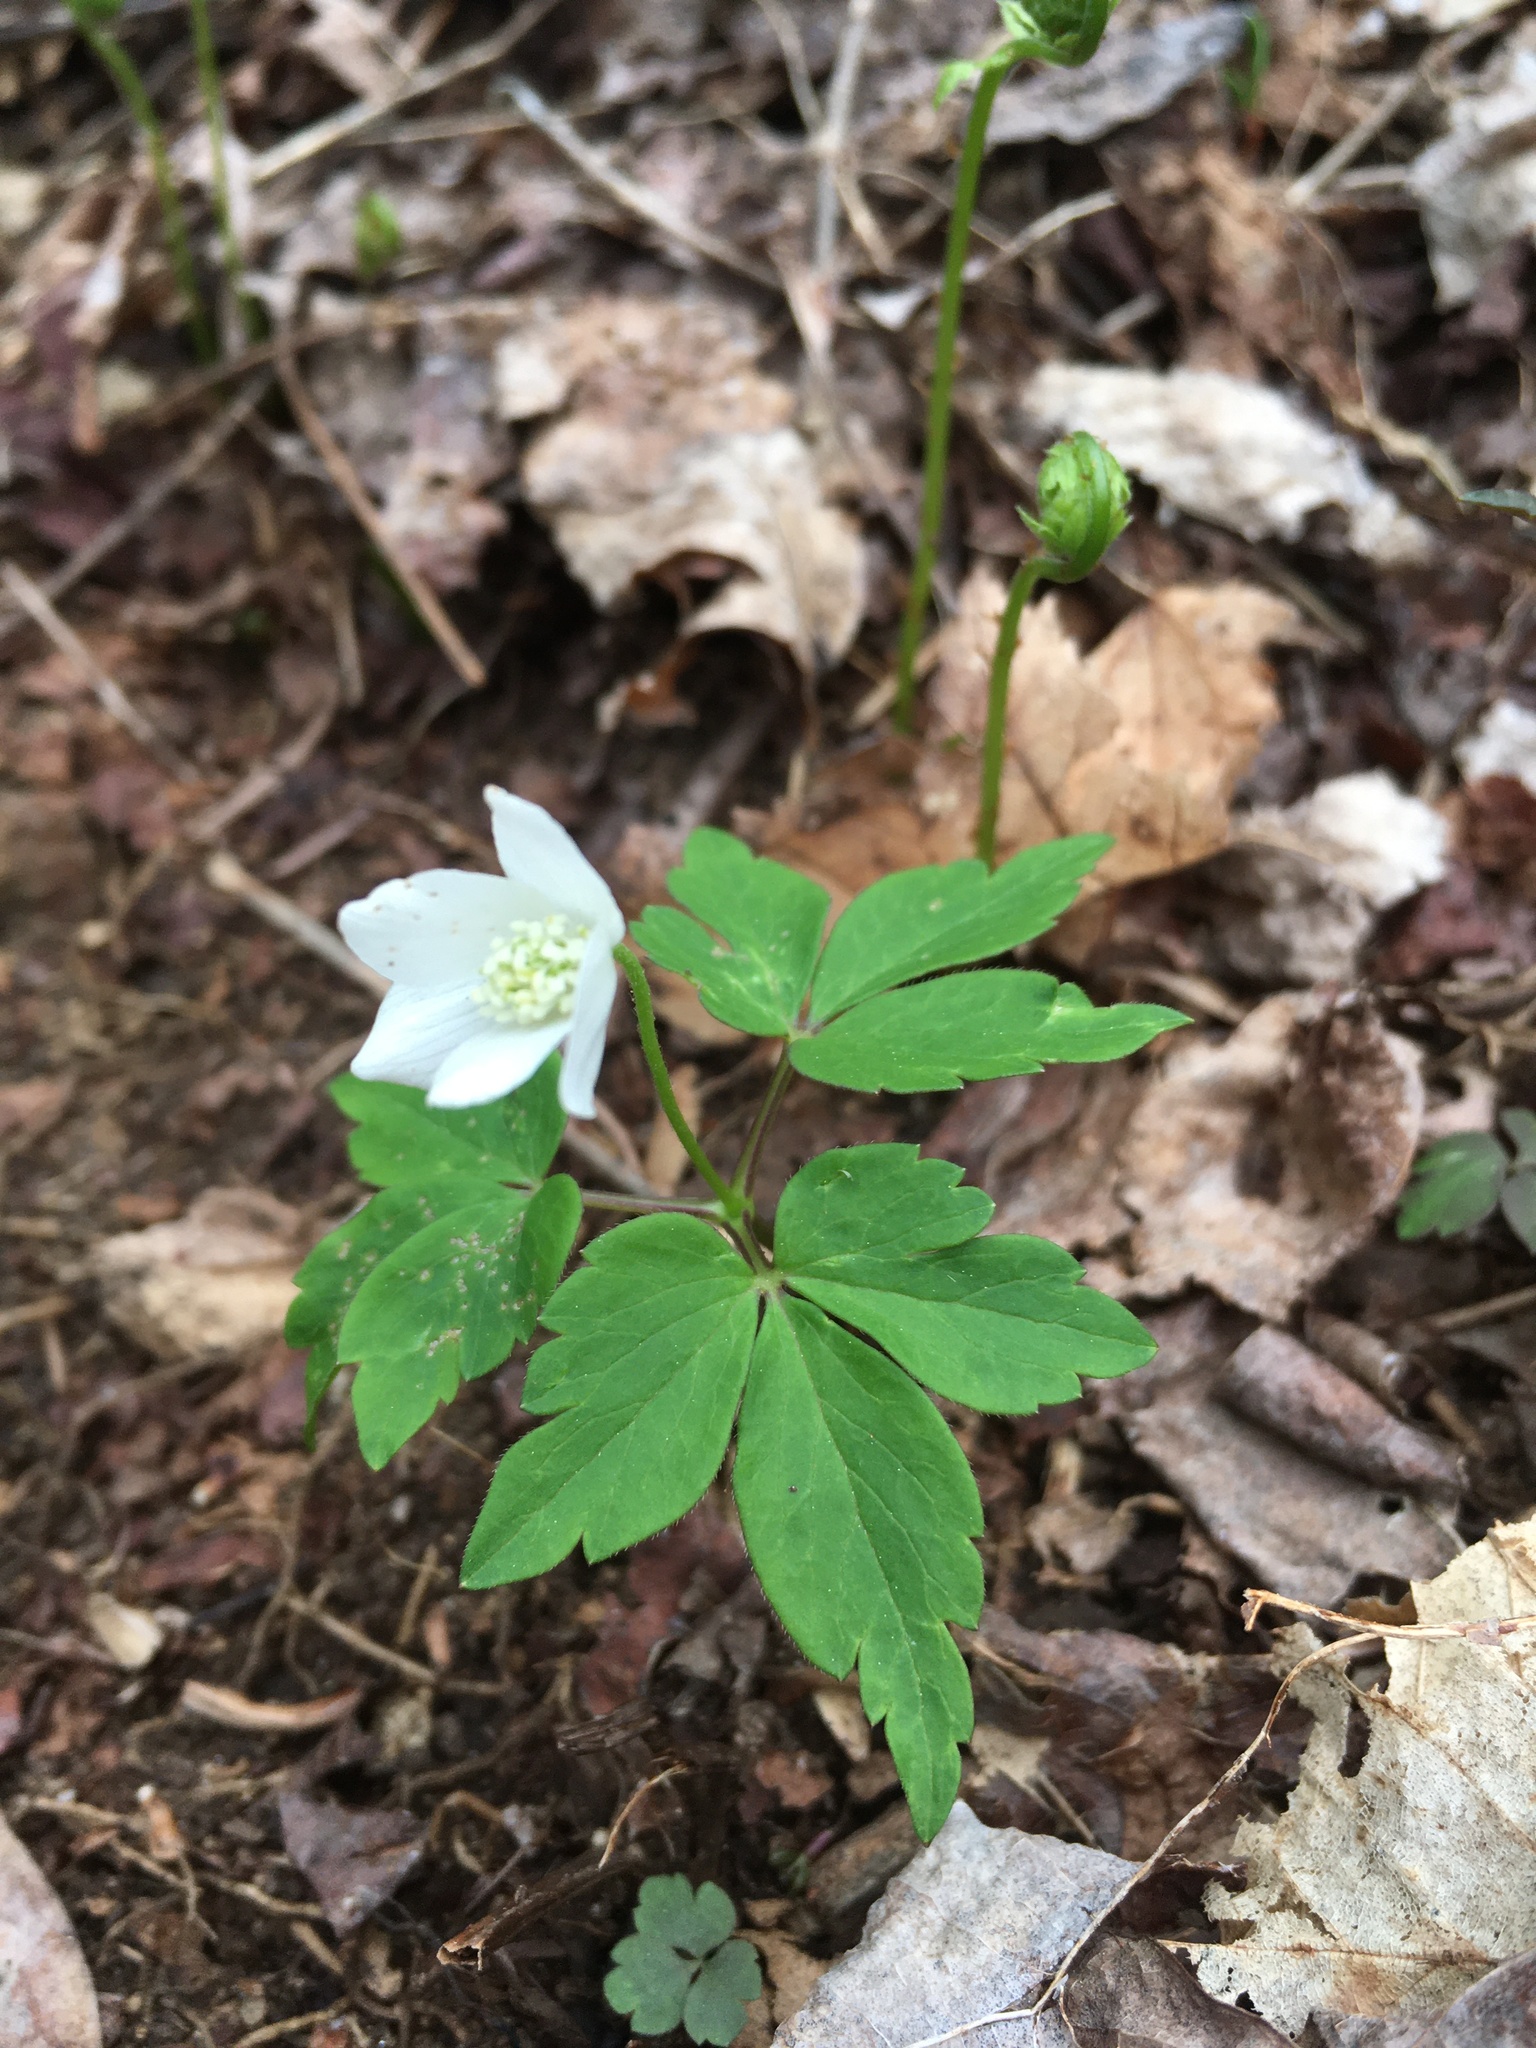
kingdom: Plantae
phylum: Tracheophyta
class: Magnoliopsida
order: Ranunculales
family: Ranunculaceae
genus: Anemone
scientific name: Anemone quinquefolia
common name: Wood anemone
